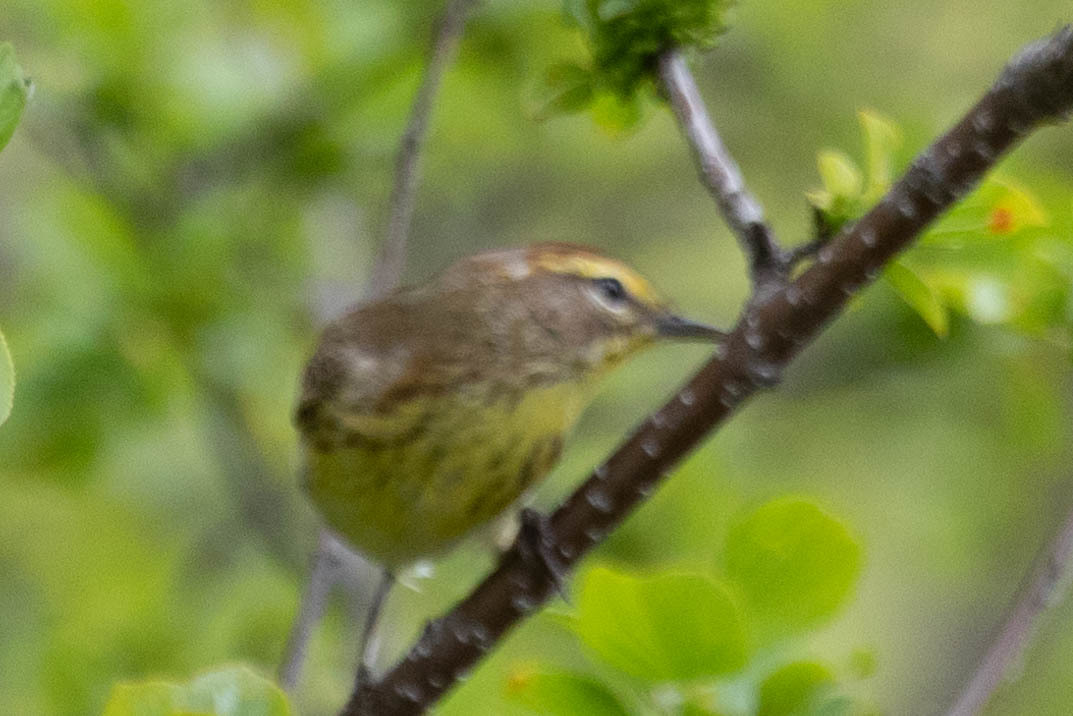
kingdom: Animalia
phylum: Chordata
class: Aves
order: Passeriformes
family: Parulidae
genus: Setophaga
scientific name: Setophaga palmarum
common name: Palm warbler
